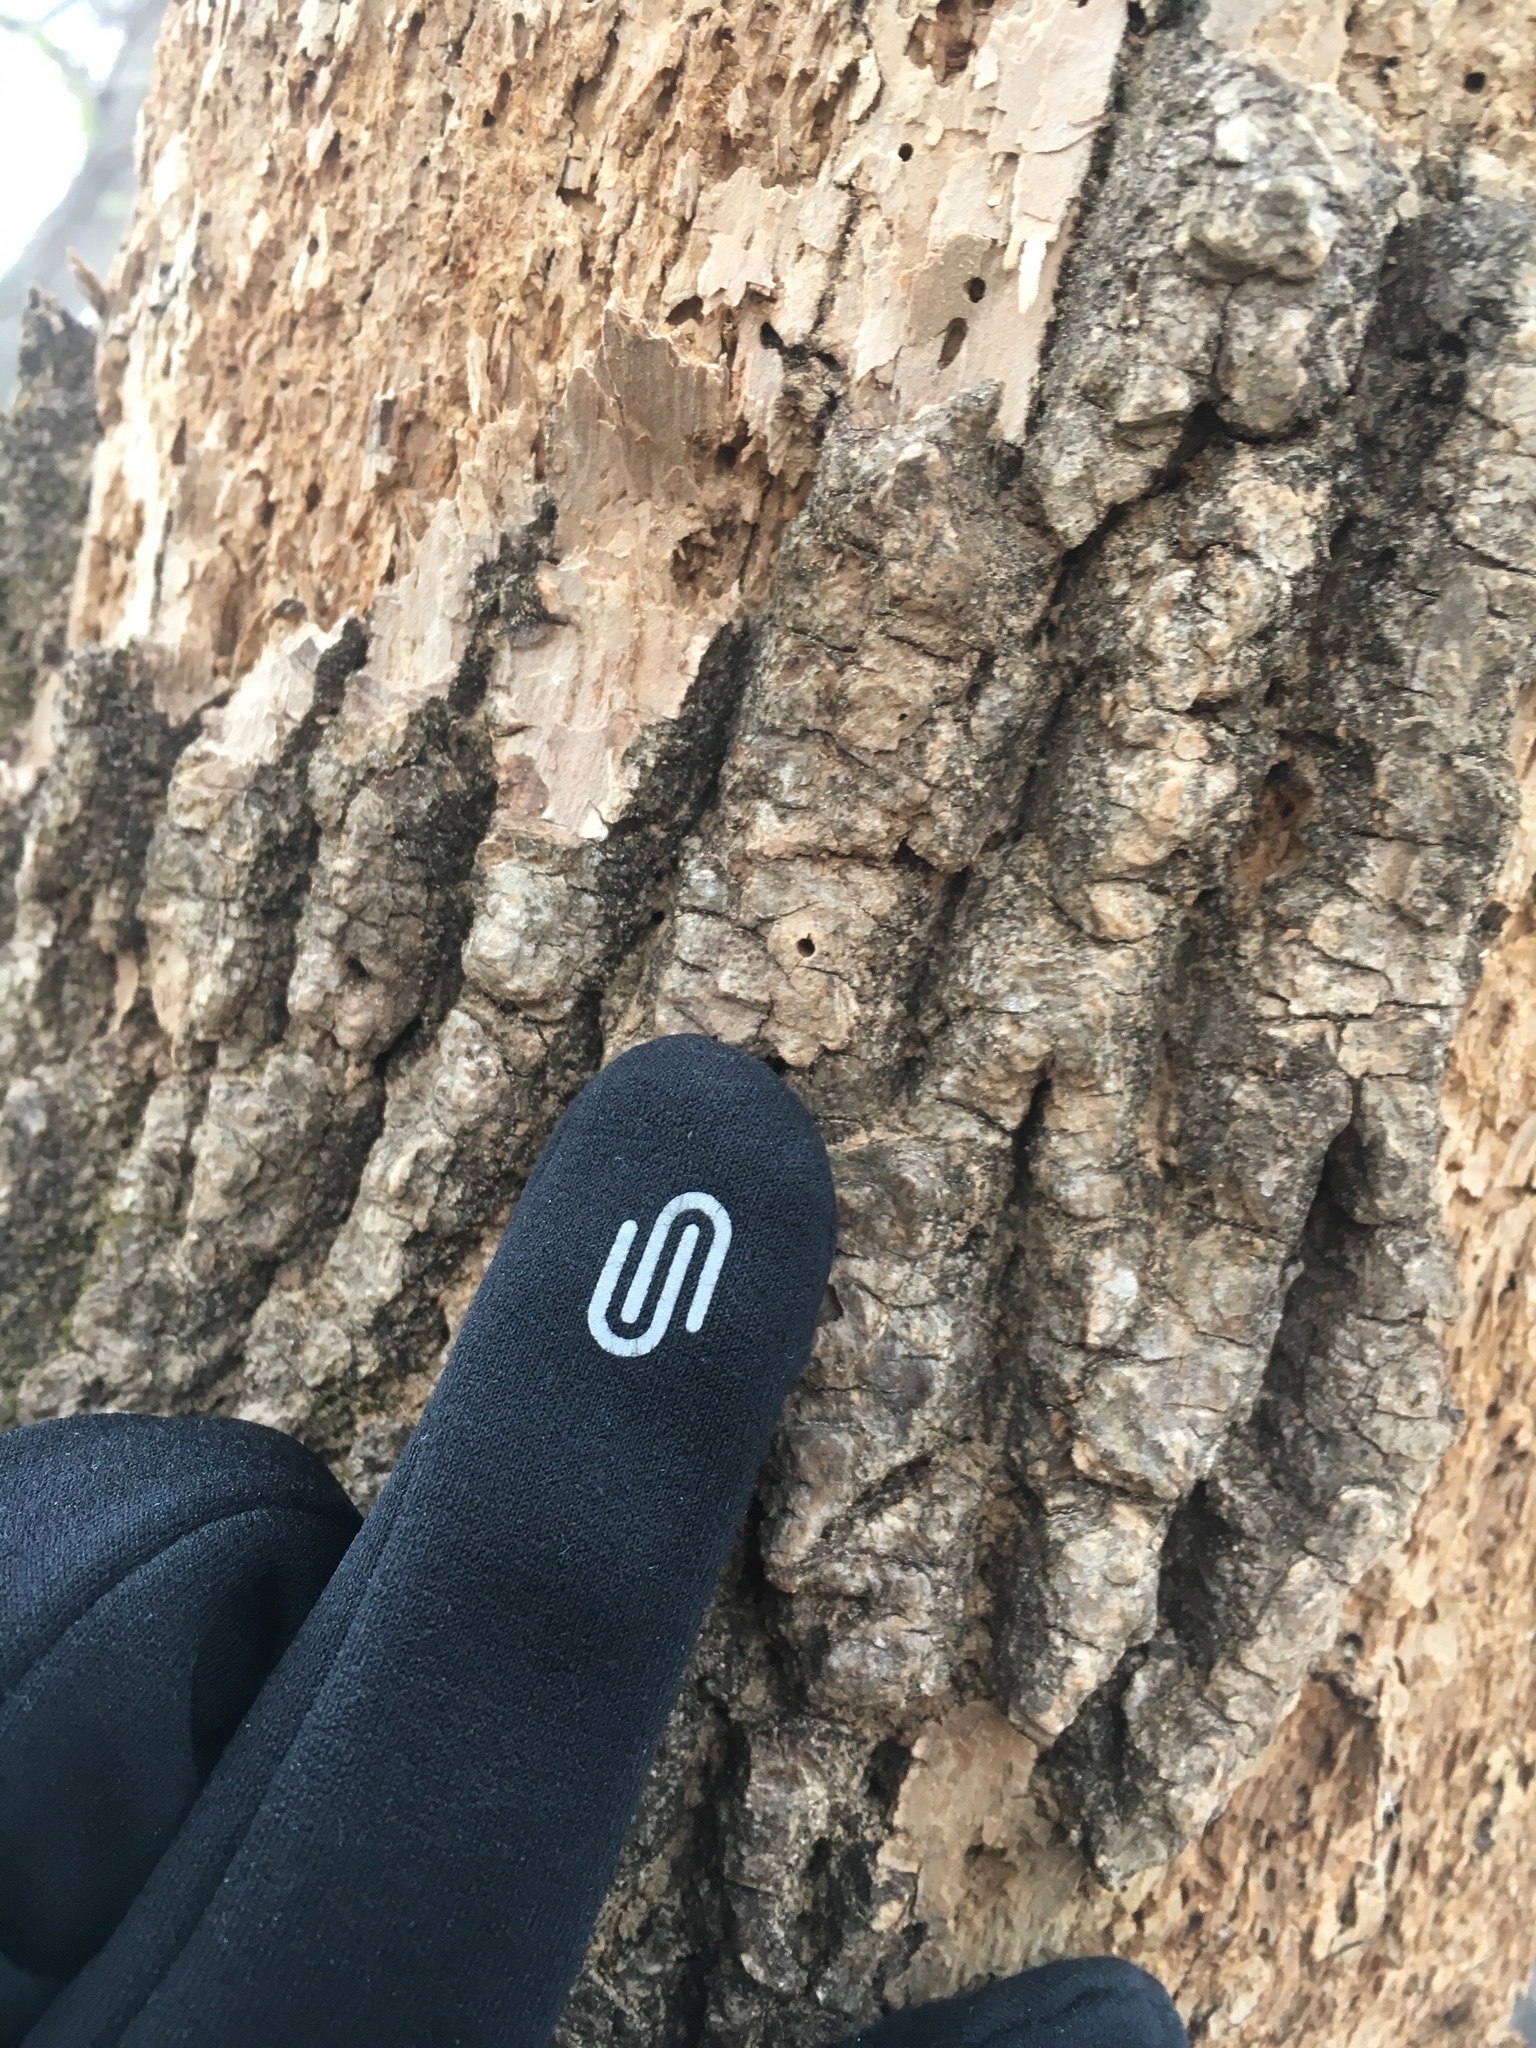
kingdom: Animalia
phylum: Arthropoda
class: Insecta
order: Coleoptera
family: Curculionidae
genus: Hylesinus
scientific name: Hylesinus aculeatus
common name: Easter-ash bark beetle
